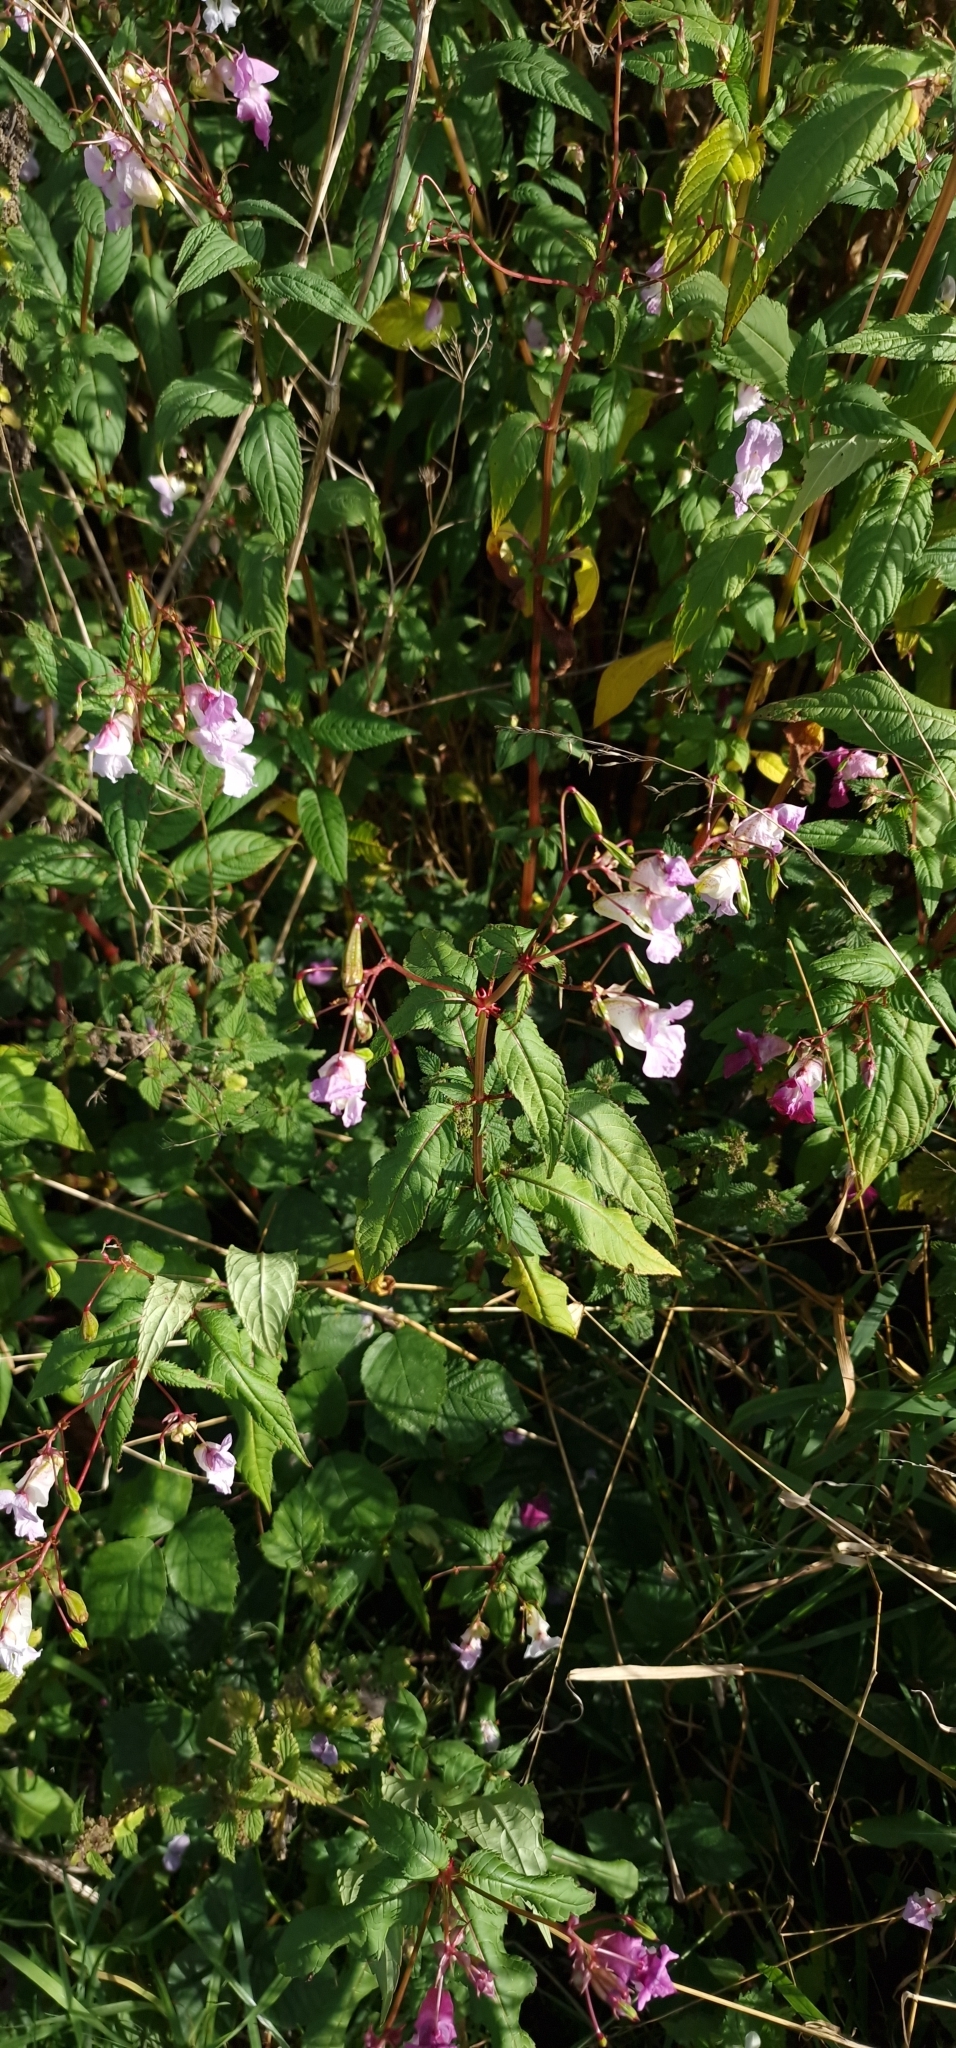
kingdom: Plantae
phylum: Tracheophyta
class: Magnoliopsida
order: Ericales
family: Balsaminaceae
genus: Impatiens
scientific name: Impatiens glandulifera
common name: Himalayan balsam
